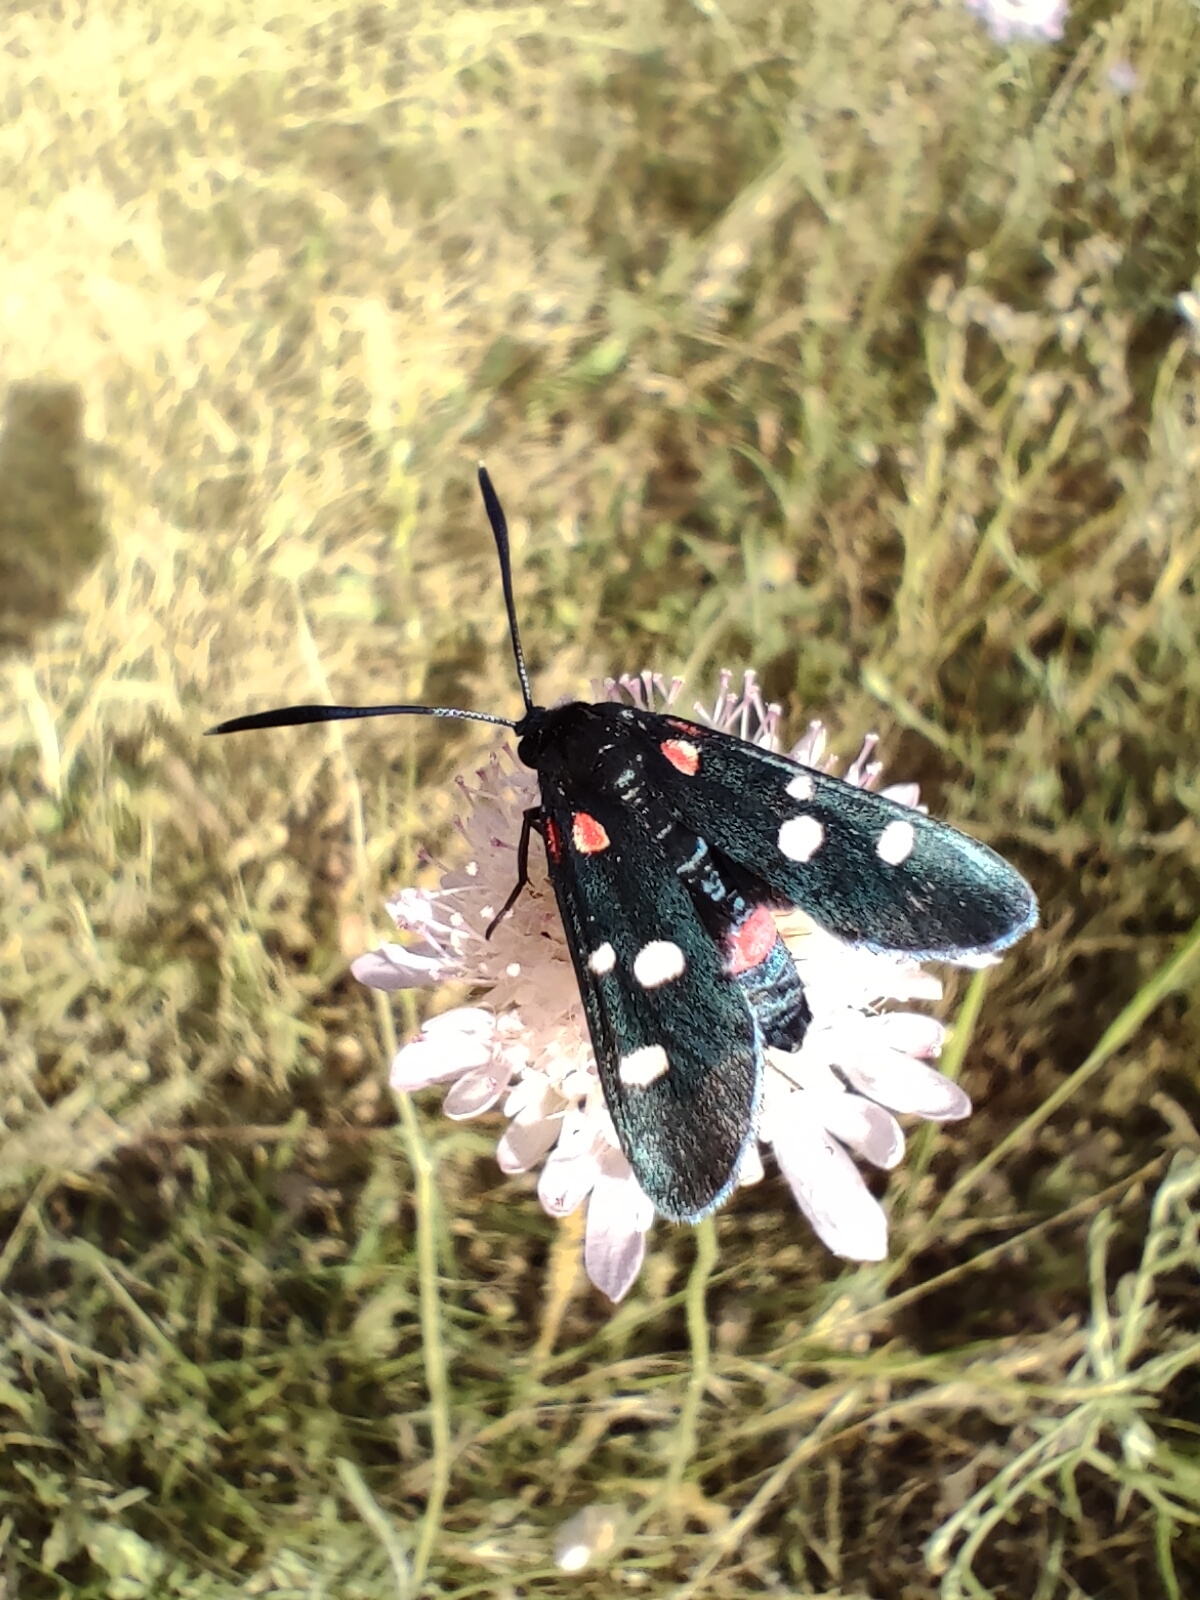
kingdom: Animalia
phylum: Arthropoda
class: Insecta
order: Lepidoptera
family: Zygaenidae
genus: Zygaena
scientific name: Zygaena ephialtes
